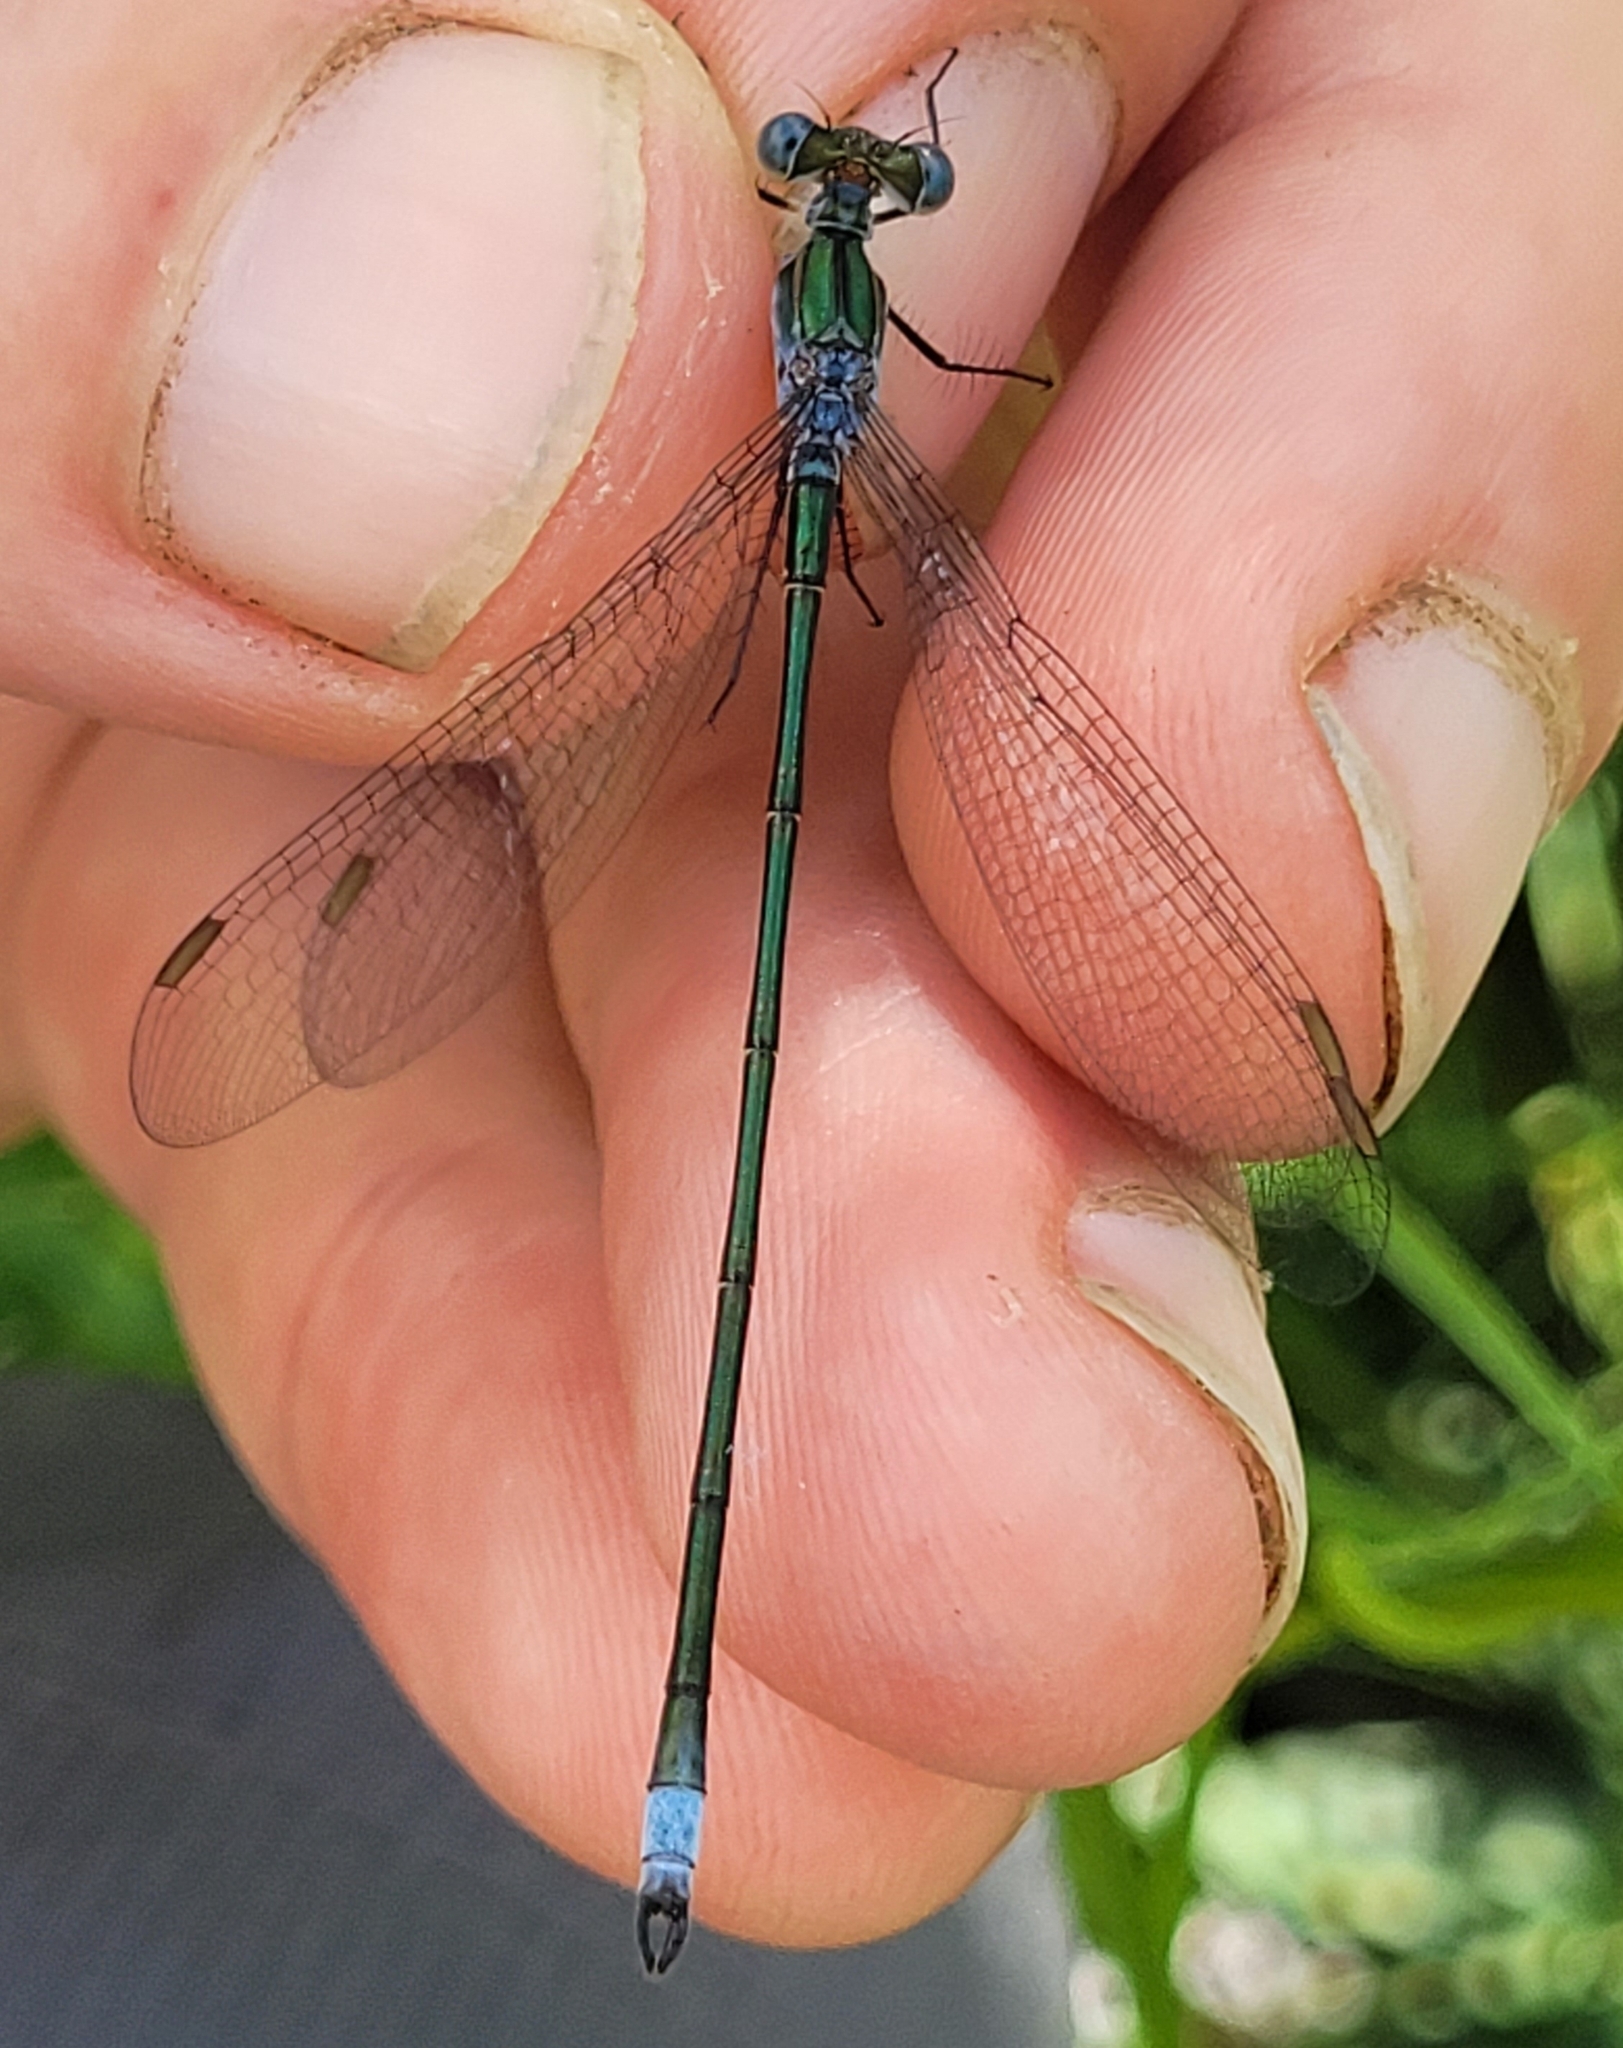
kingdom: Animalia
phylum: Arthropoda
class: Insecta
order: Odonata
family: Lestidae
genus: Lestes
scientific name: Lestes vigilax
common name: Swamp spreadwing
